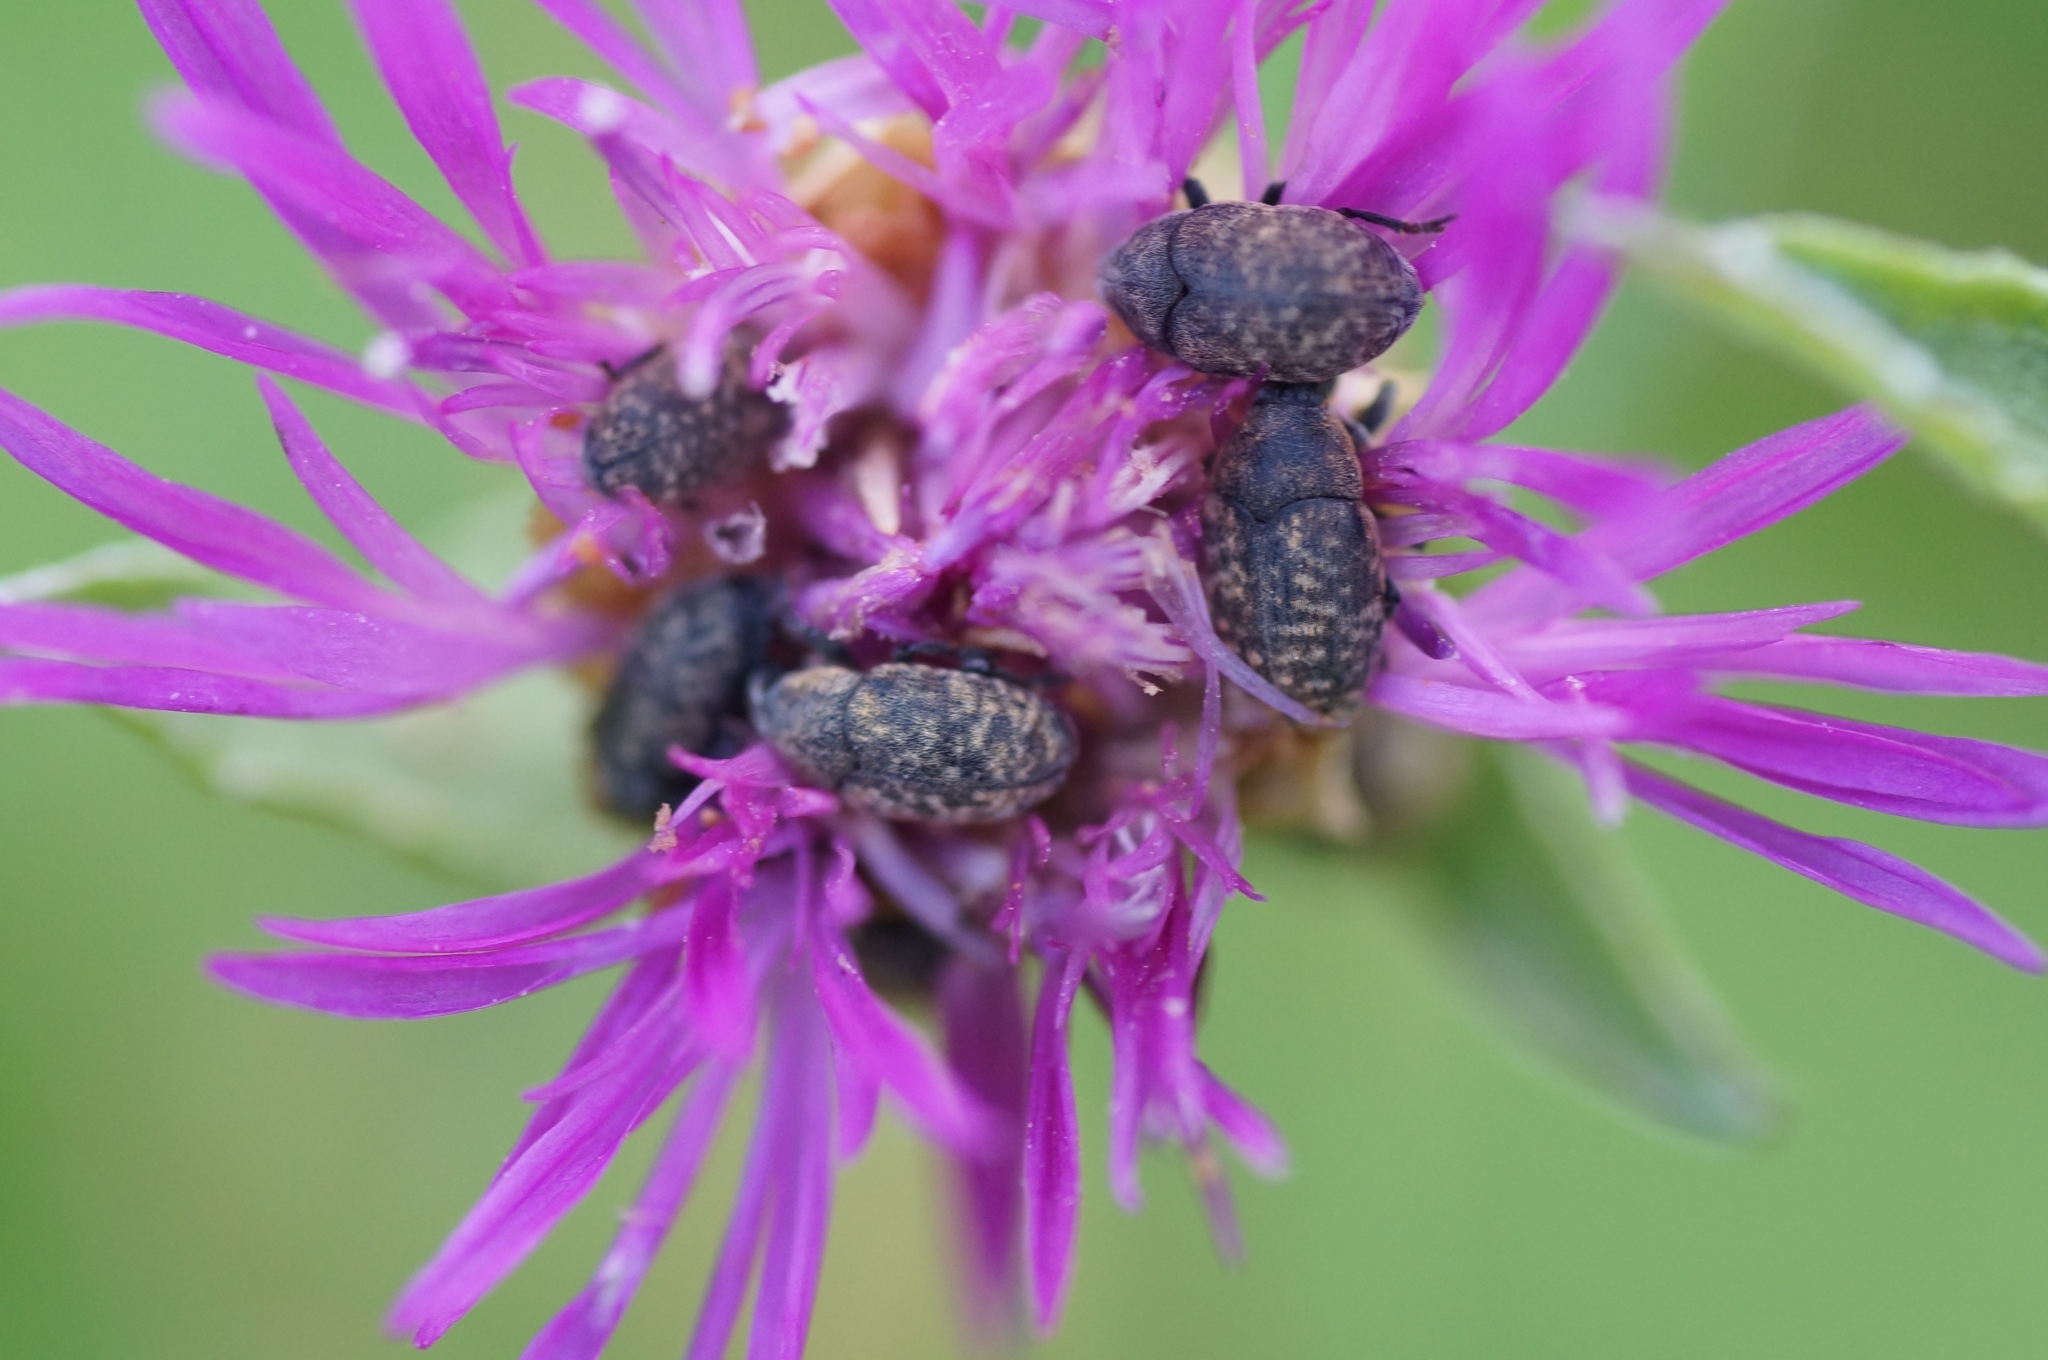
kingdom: Animalia
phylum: Arthropoda
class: Insecta
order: Coleoptera
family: Curculionidae
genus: Larinus
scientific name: Larinus obtusus
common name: Weevil
